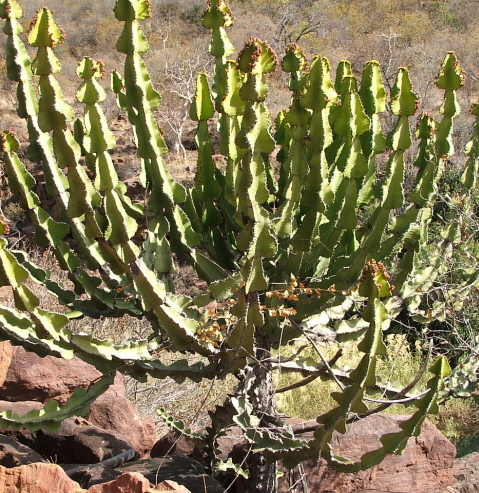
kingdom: Plantae
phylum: Tracheophyta
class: Magnoliopsida
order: Malpighiales
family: Euphorbiaceae
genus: Euphorbia
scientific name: Euphorbia cooperi
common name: Candelabra tree
